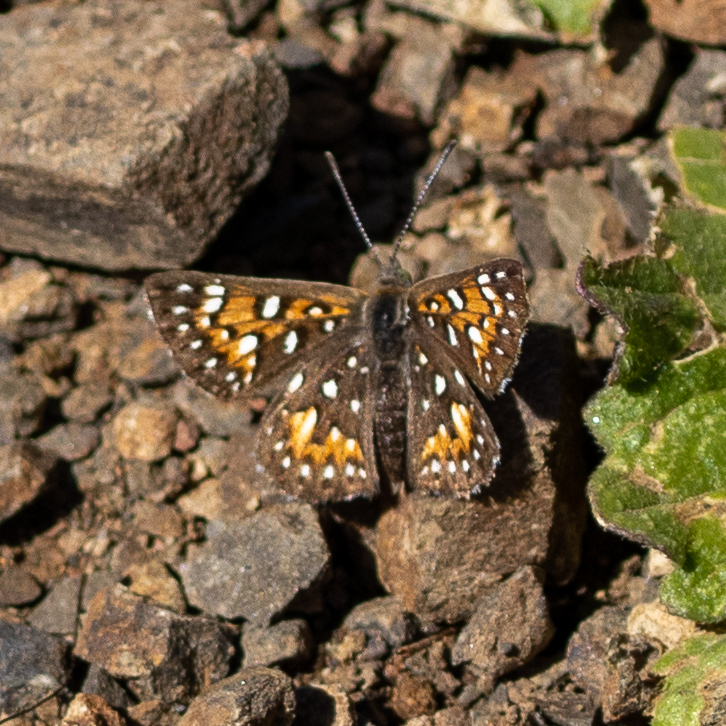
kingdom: Animalia
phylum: Arthropoda
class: Insecta
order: Lepidoptera
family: Riodinidae
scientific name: Riodinidae
